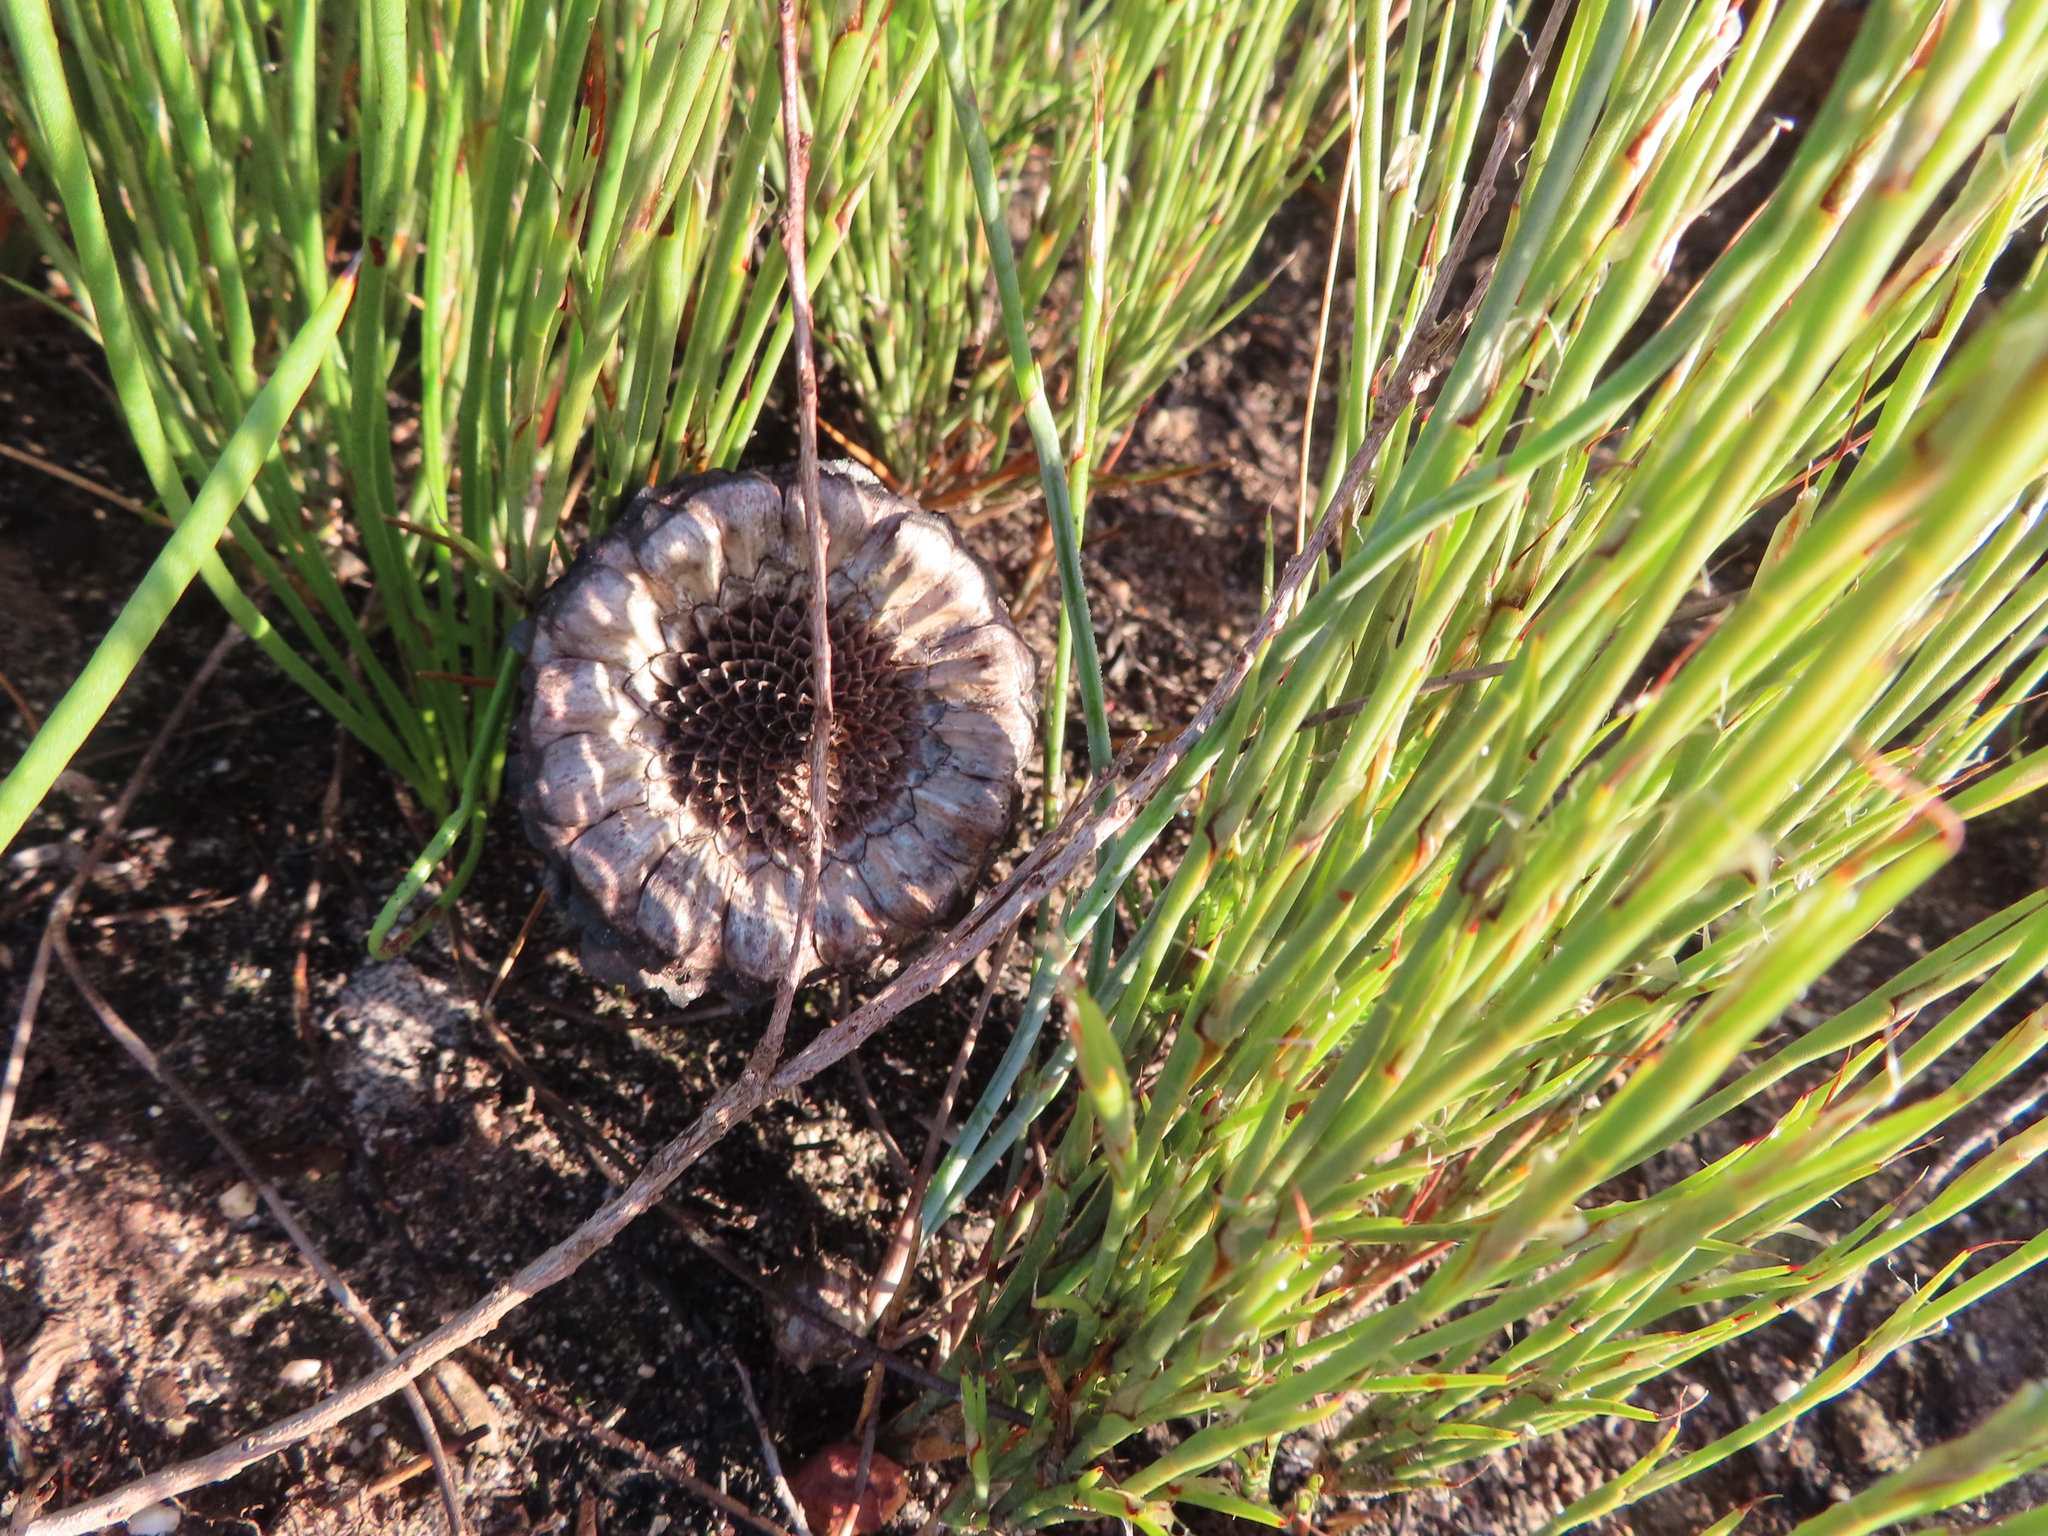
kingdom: Plantae
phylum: Tracheophyta
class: Magnoliopsida
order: Proteales
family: Proteaceae
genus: Protea
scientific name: Protea lorea
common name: Thong-leaf sugarbush
